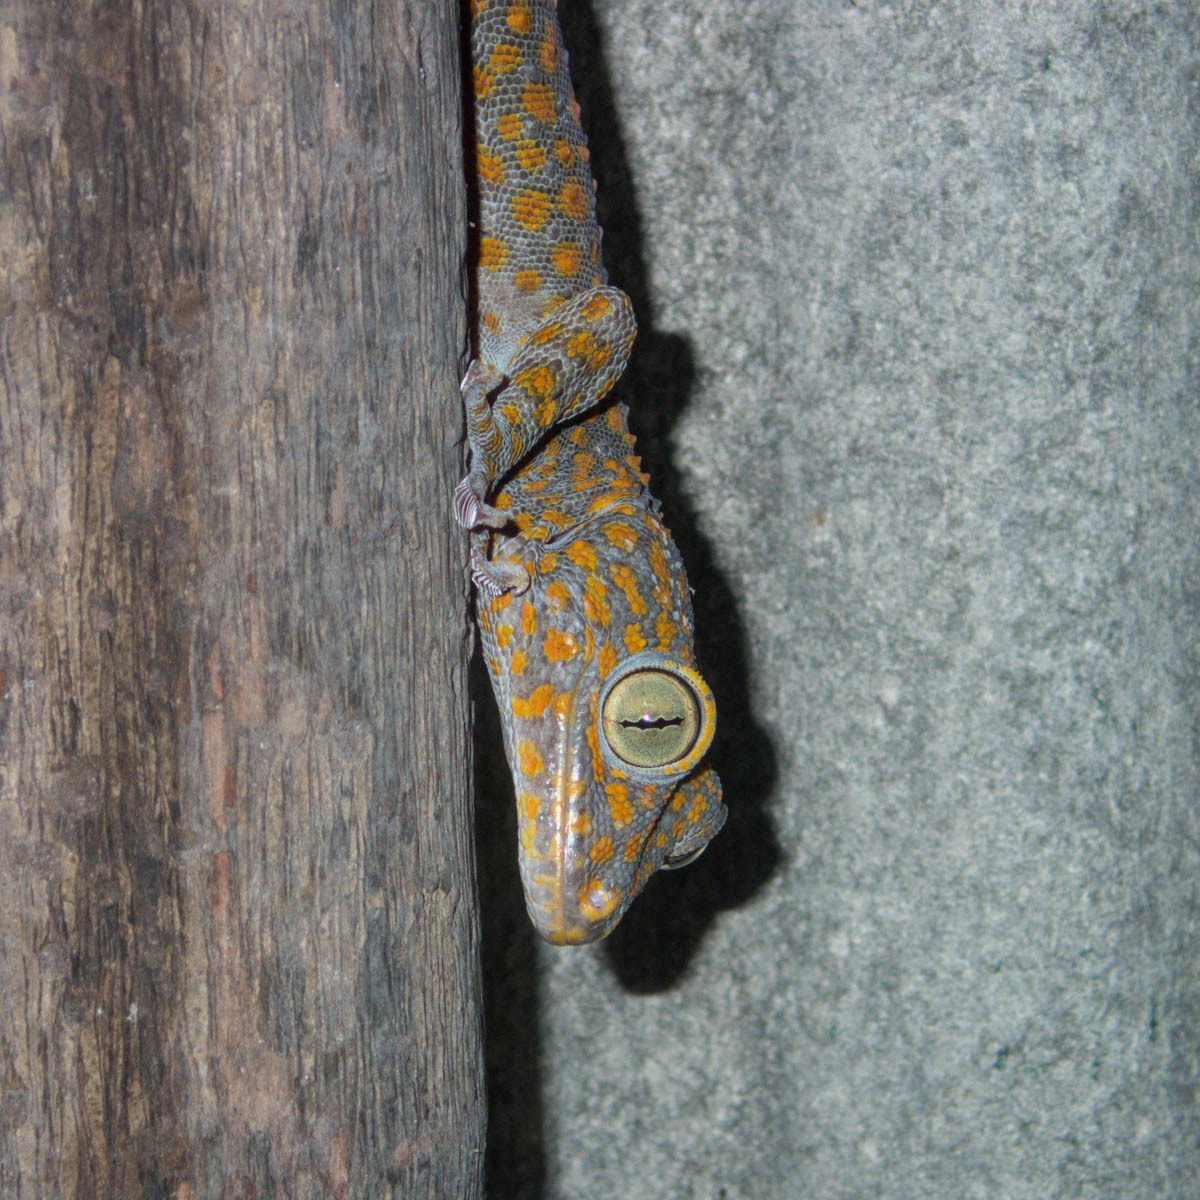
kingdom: Animalia
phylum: Chordata
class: Squamata
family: Gekkonidae
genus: Gekko
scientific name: Gekko gecko
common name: Tokay gecko
